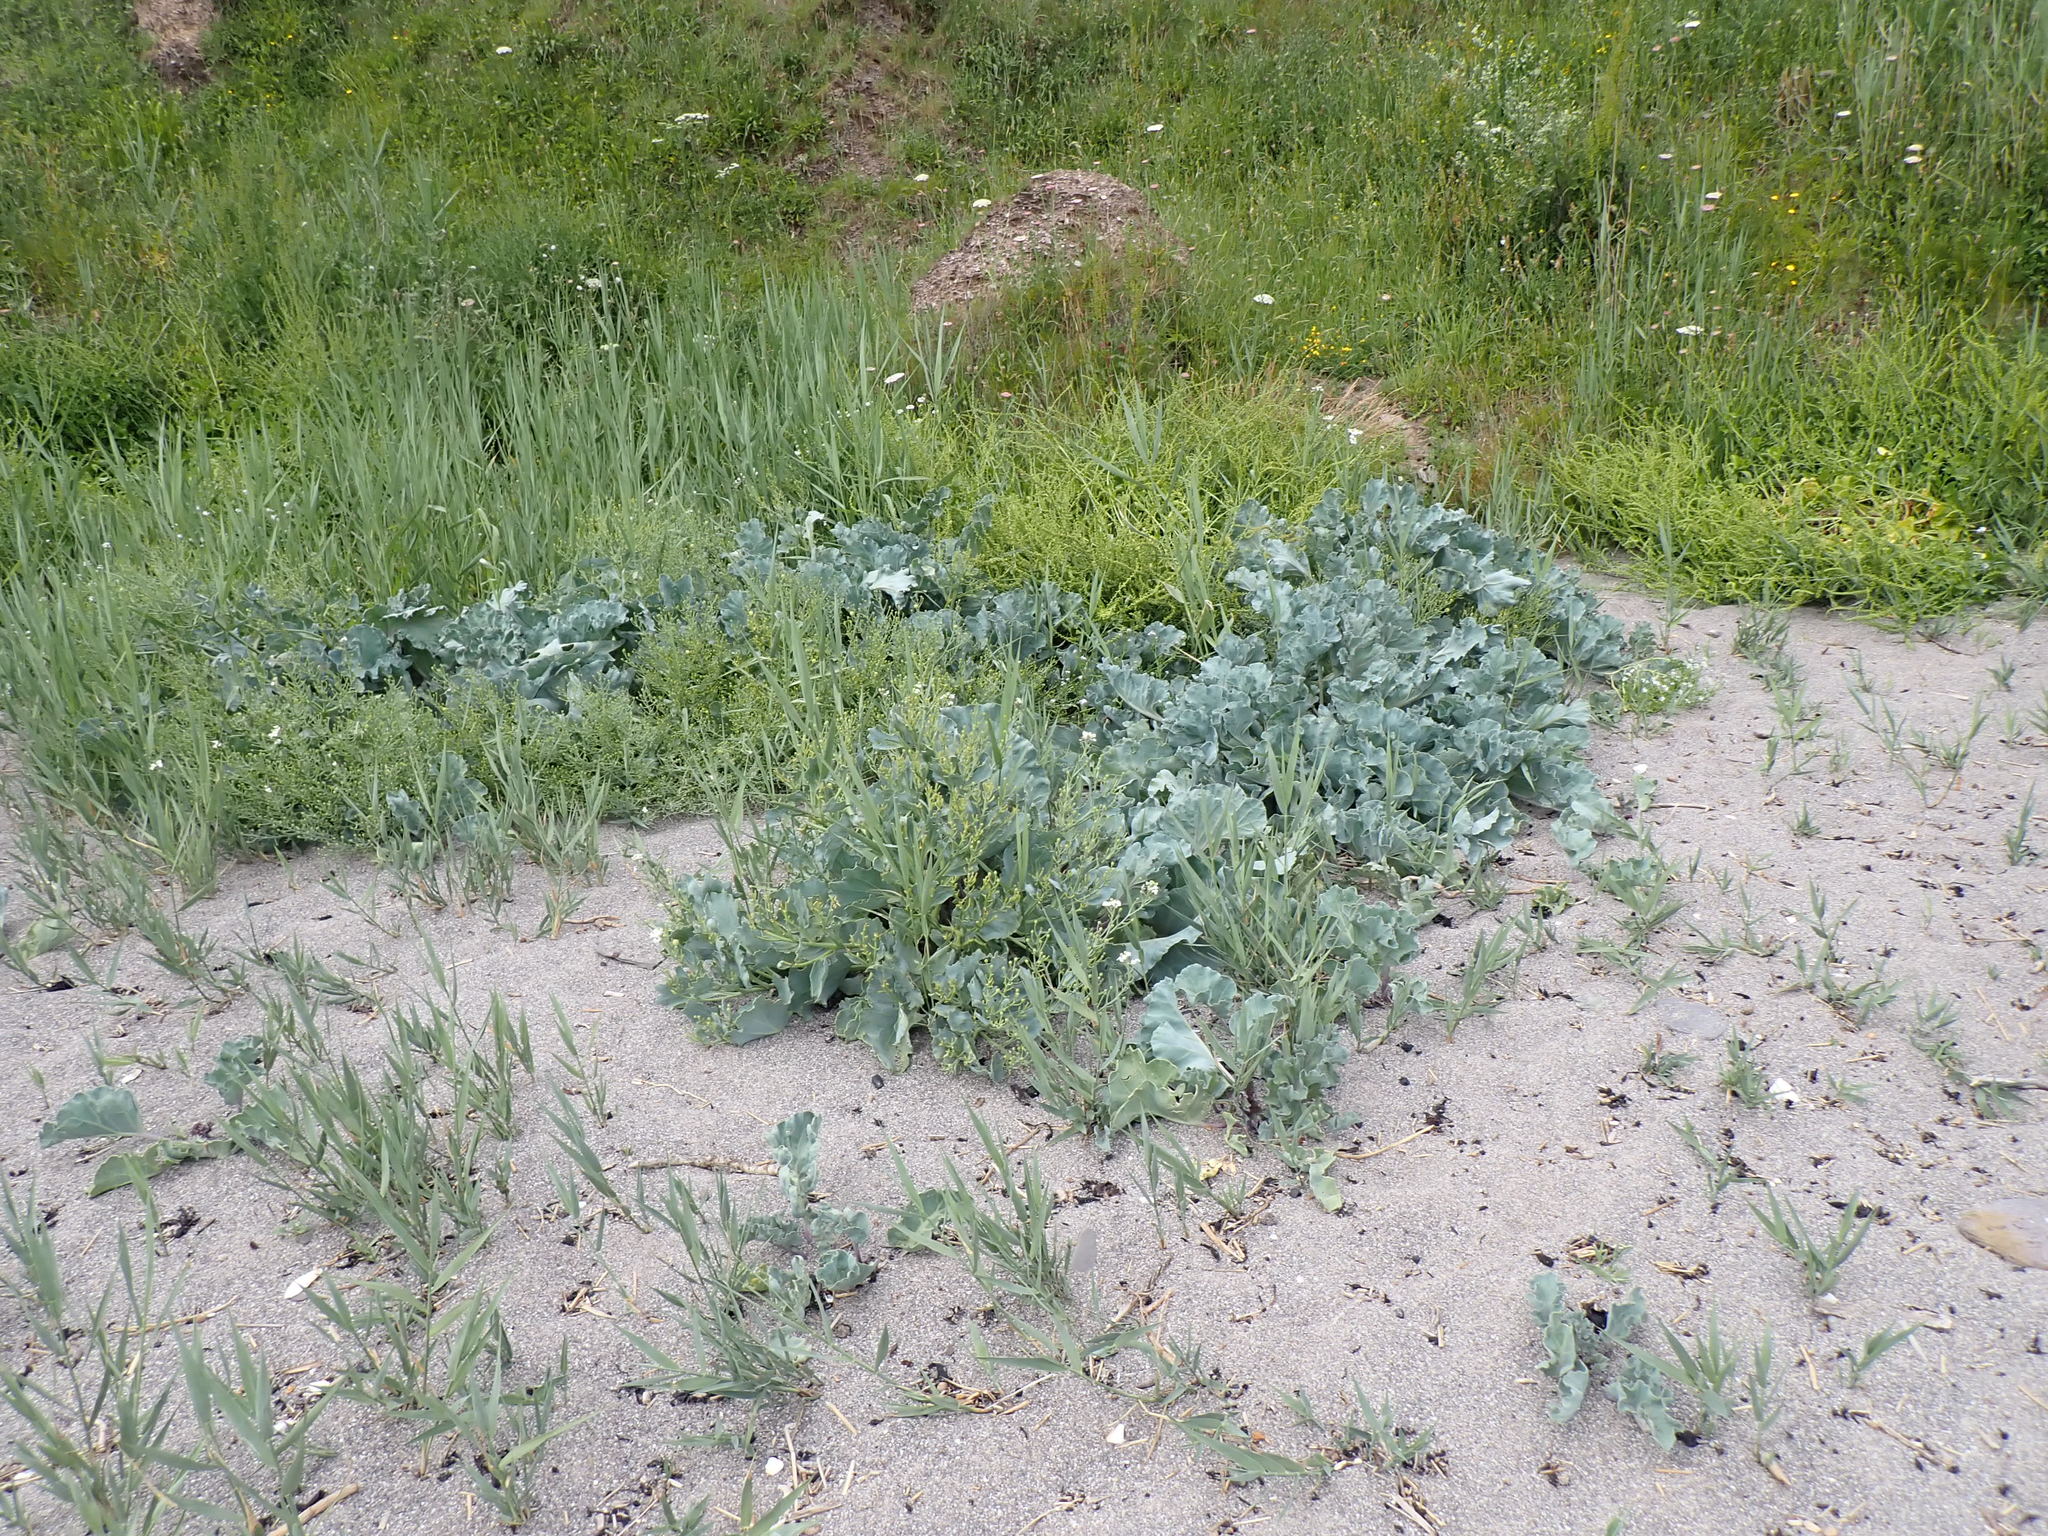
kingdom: Plantae
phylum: Tracheophyta
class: Magnoliopsida
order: Brassicales
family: Brassicaceae
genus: Crambe
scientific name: Crambe maritima
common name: Sea-kale
